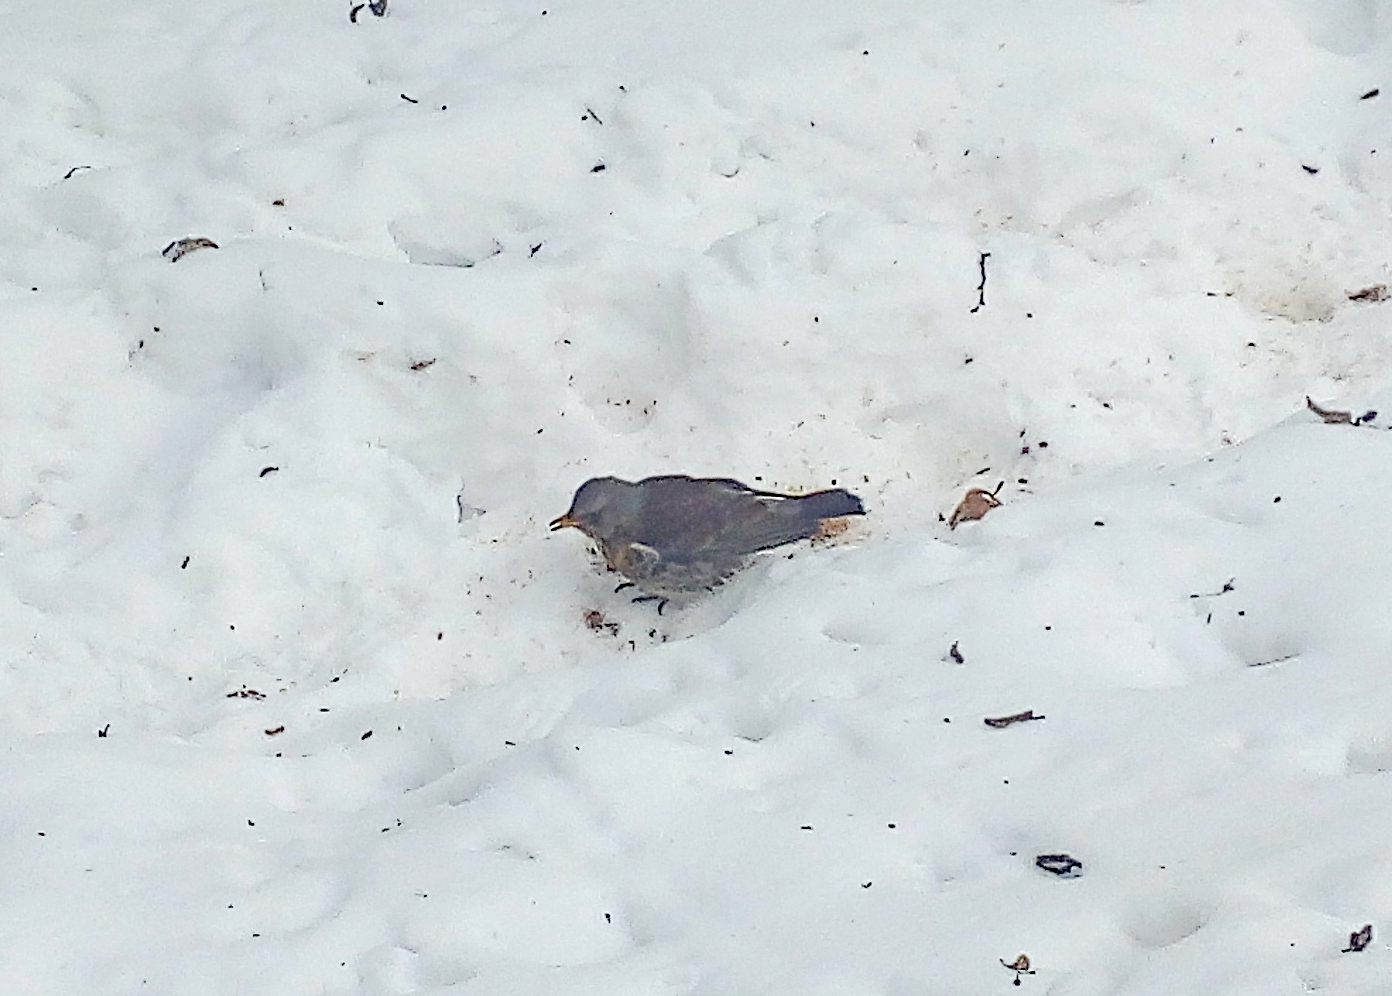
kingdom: Animalia
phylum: Chordata
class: Aves
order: Passeriformes
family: Turdidae
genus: Turdus
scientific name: Turdus pilaris
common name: Fieldfare
